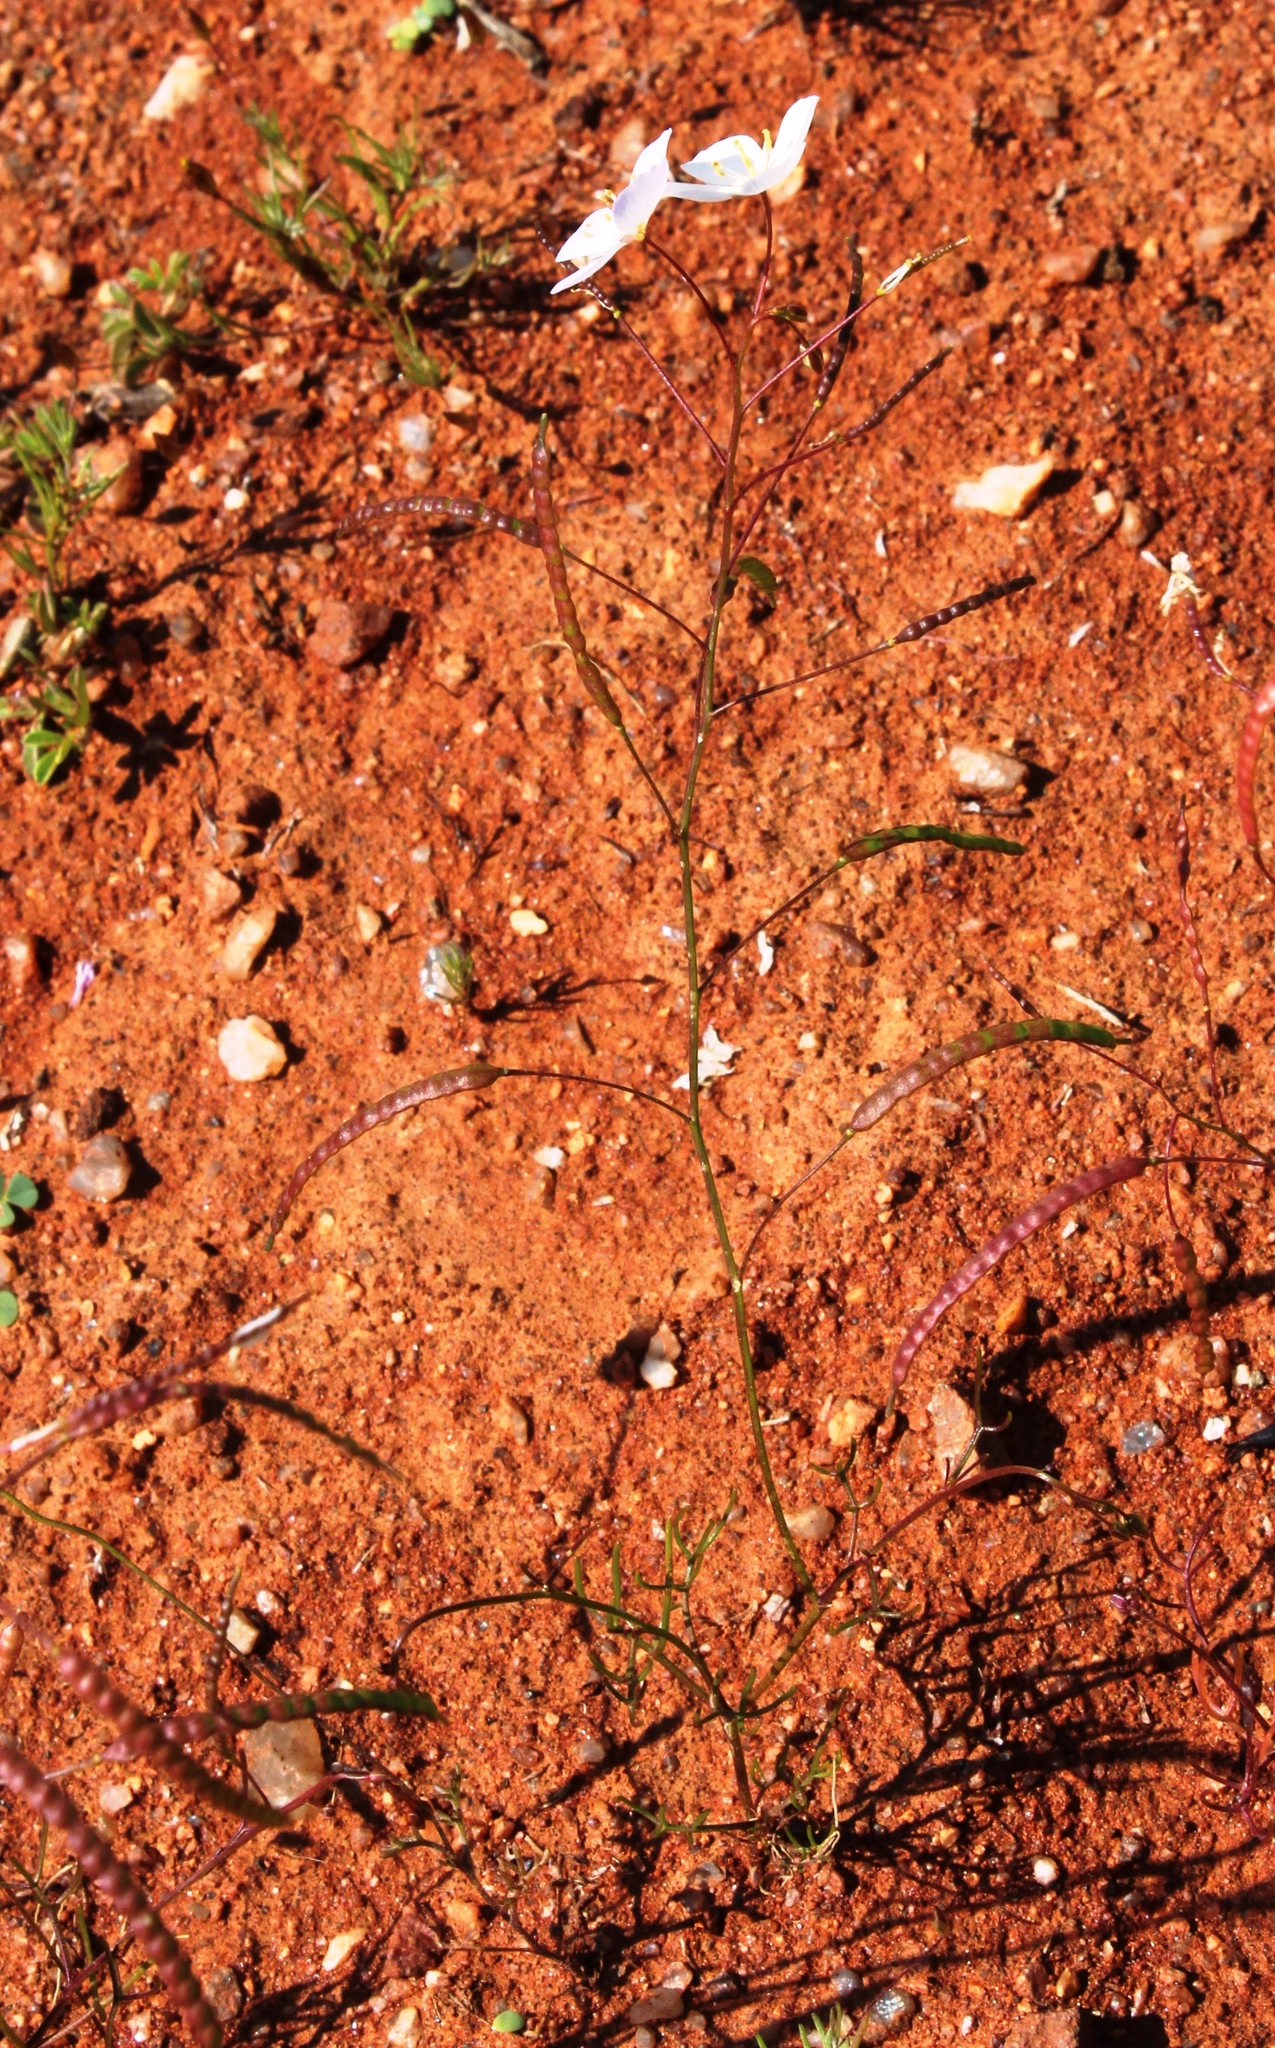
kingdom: Plantae
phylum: Tracheophyta
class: Magnoliopsida
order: Brassicales
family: Brassicaceae
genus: Heliophila
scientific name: Heliophila variabilis
